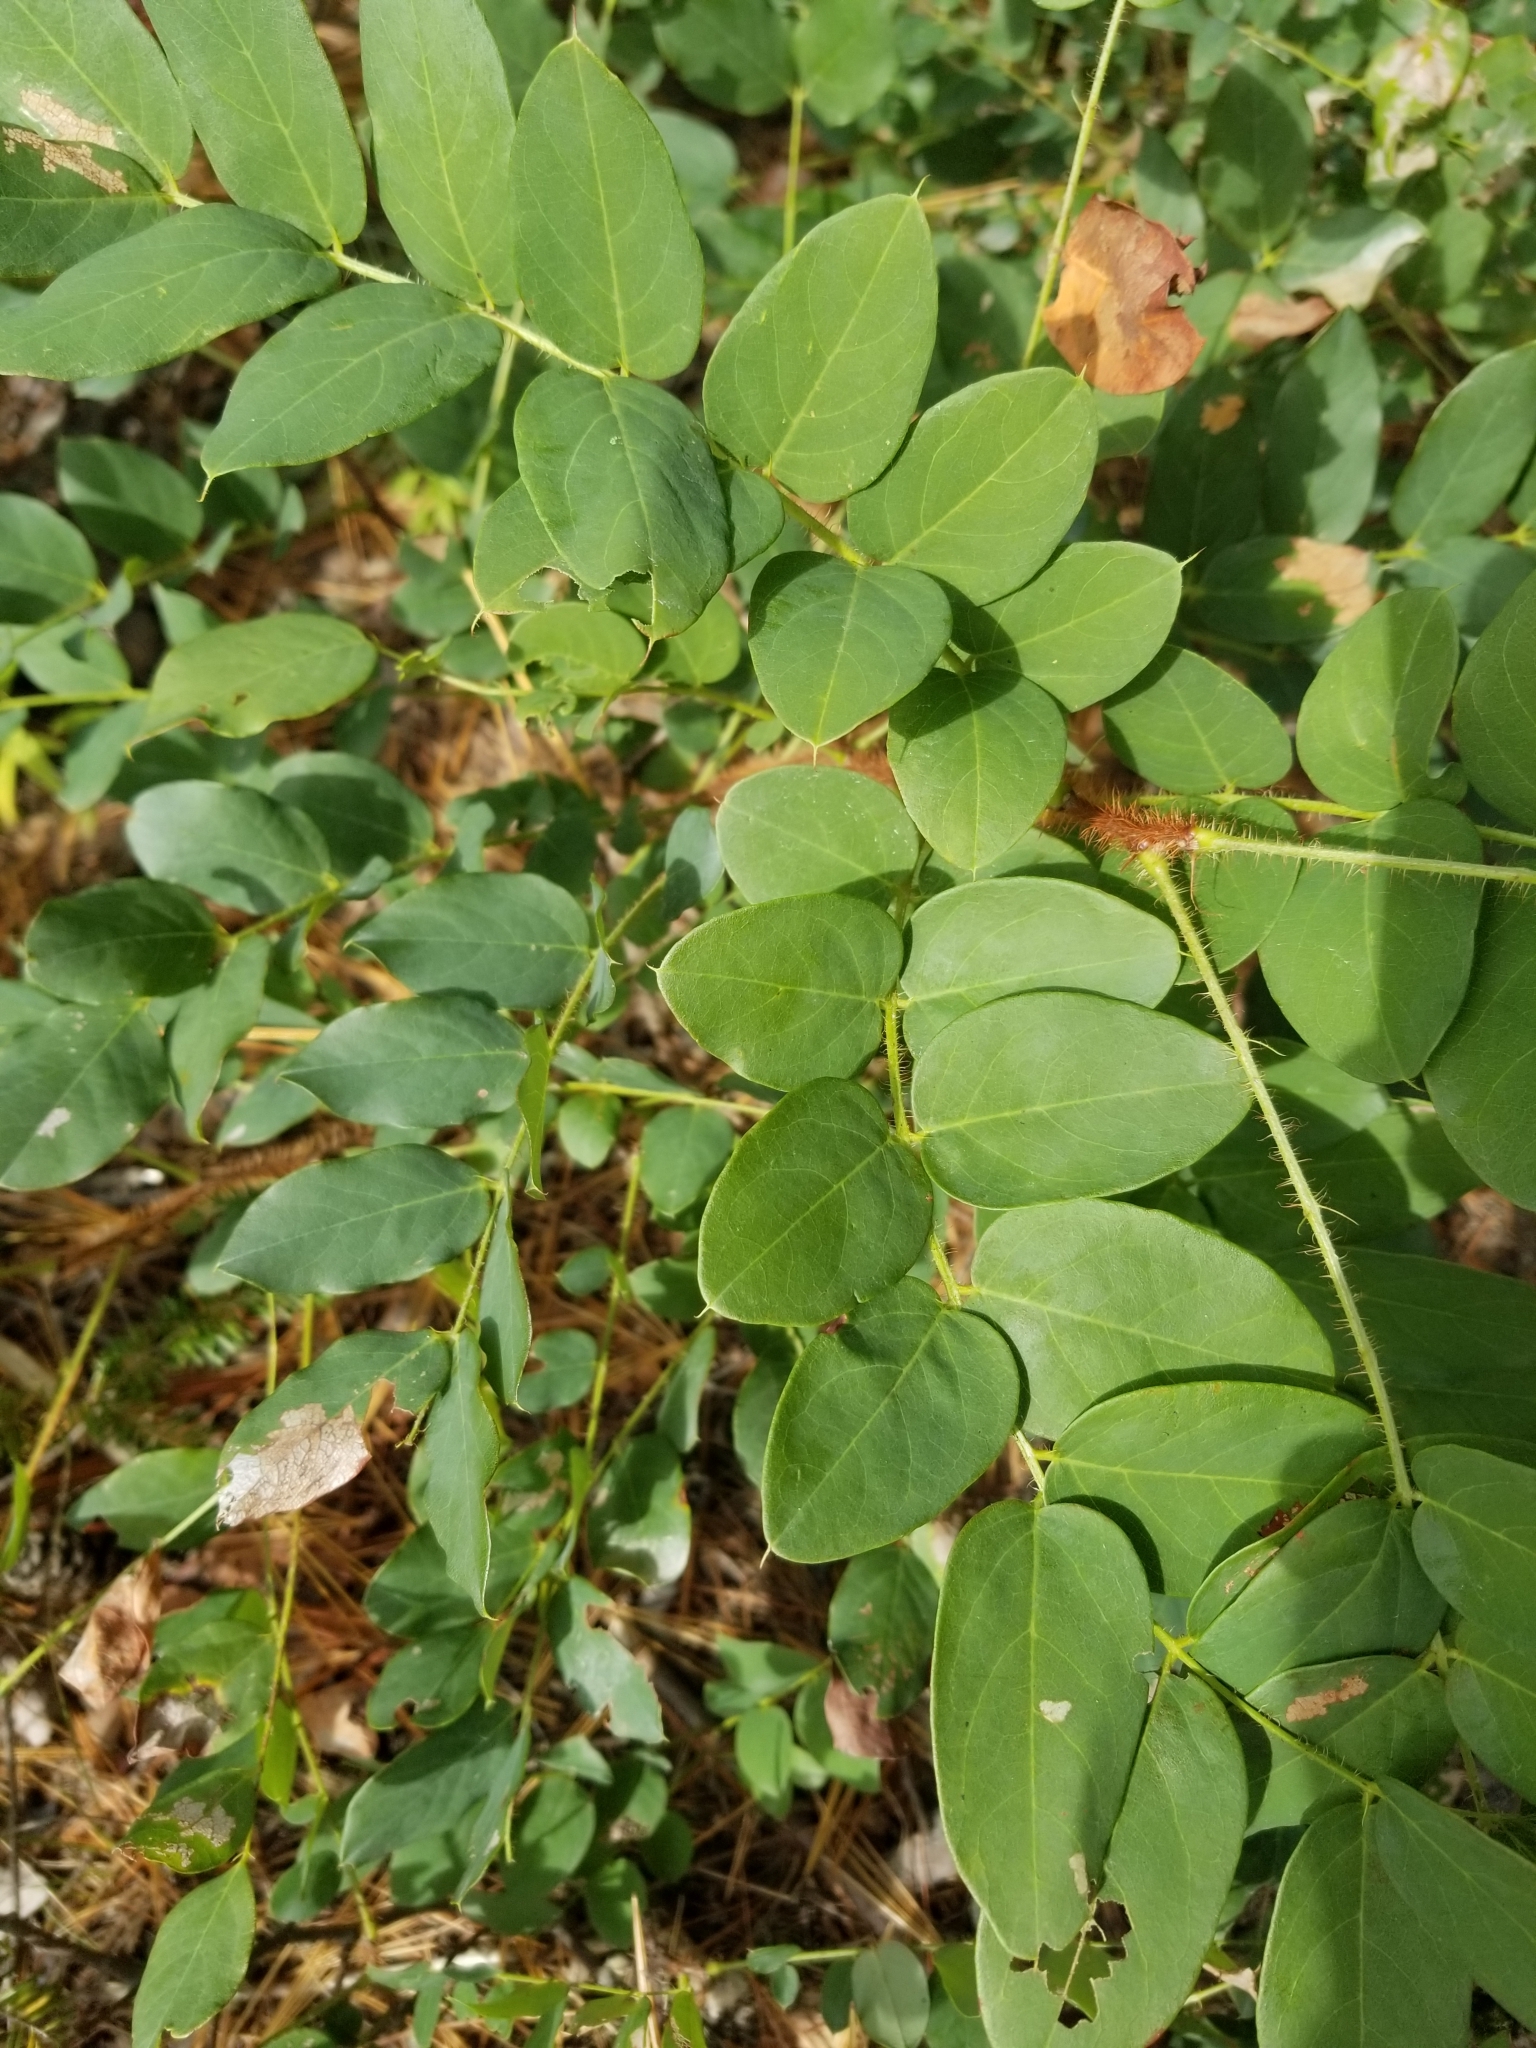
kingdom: Plantae
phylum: Tracheophyta
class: Magnoliopsida
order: Fabales
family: Fabaceae
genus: Robinia
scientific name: Robinia hispida
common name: Bristly locust
